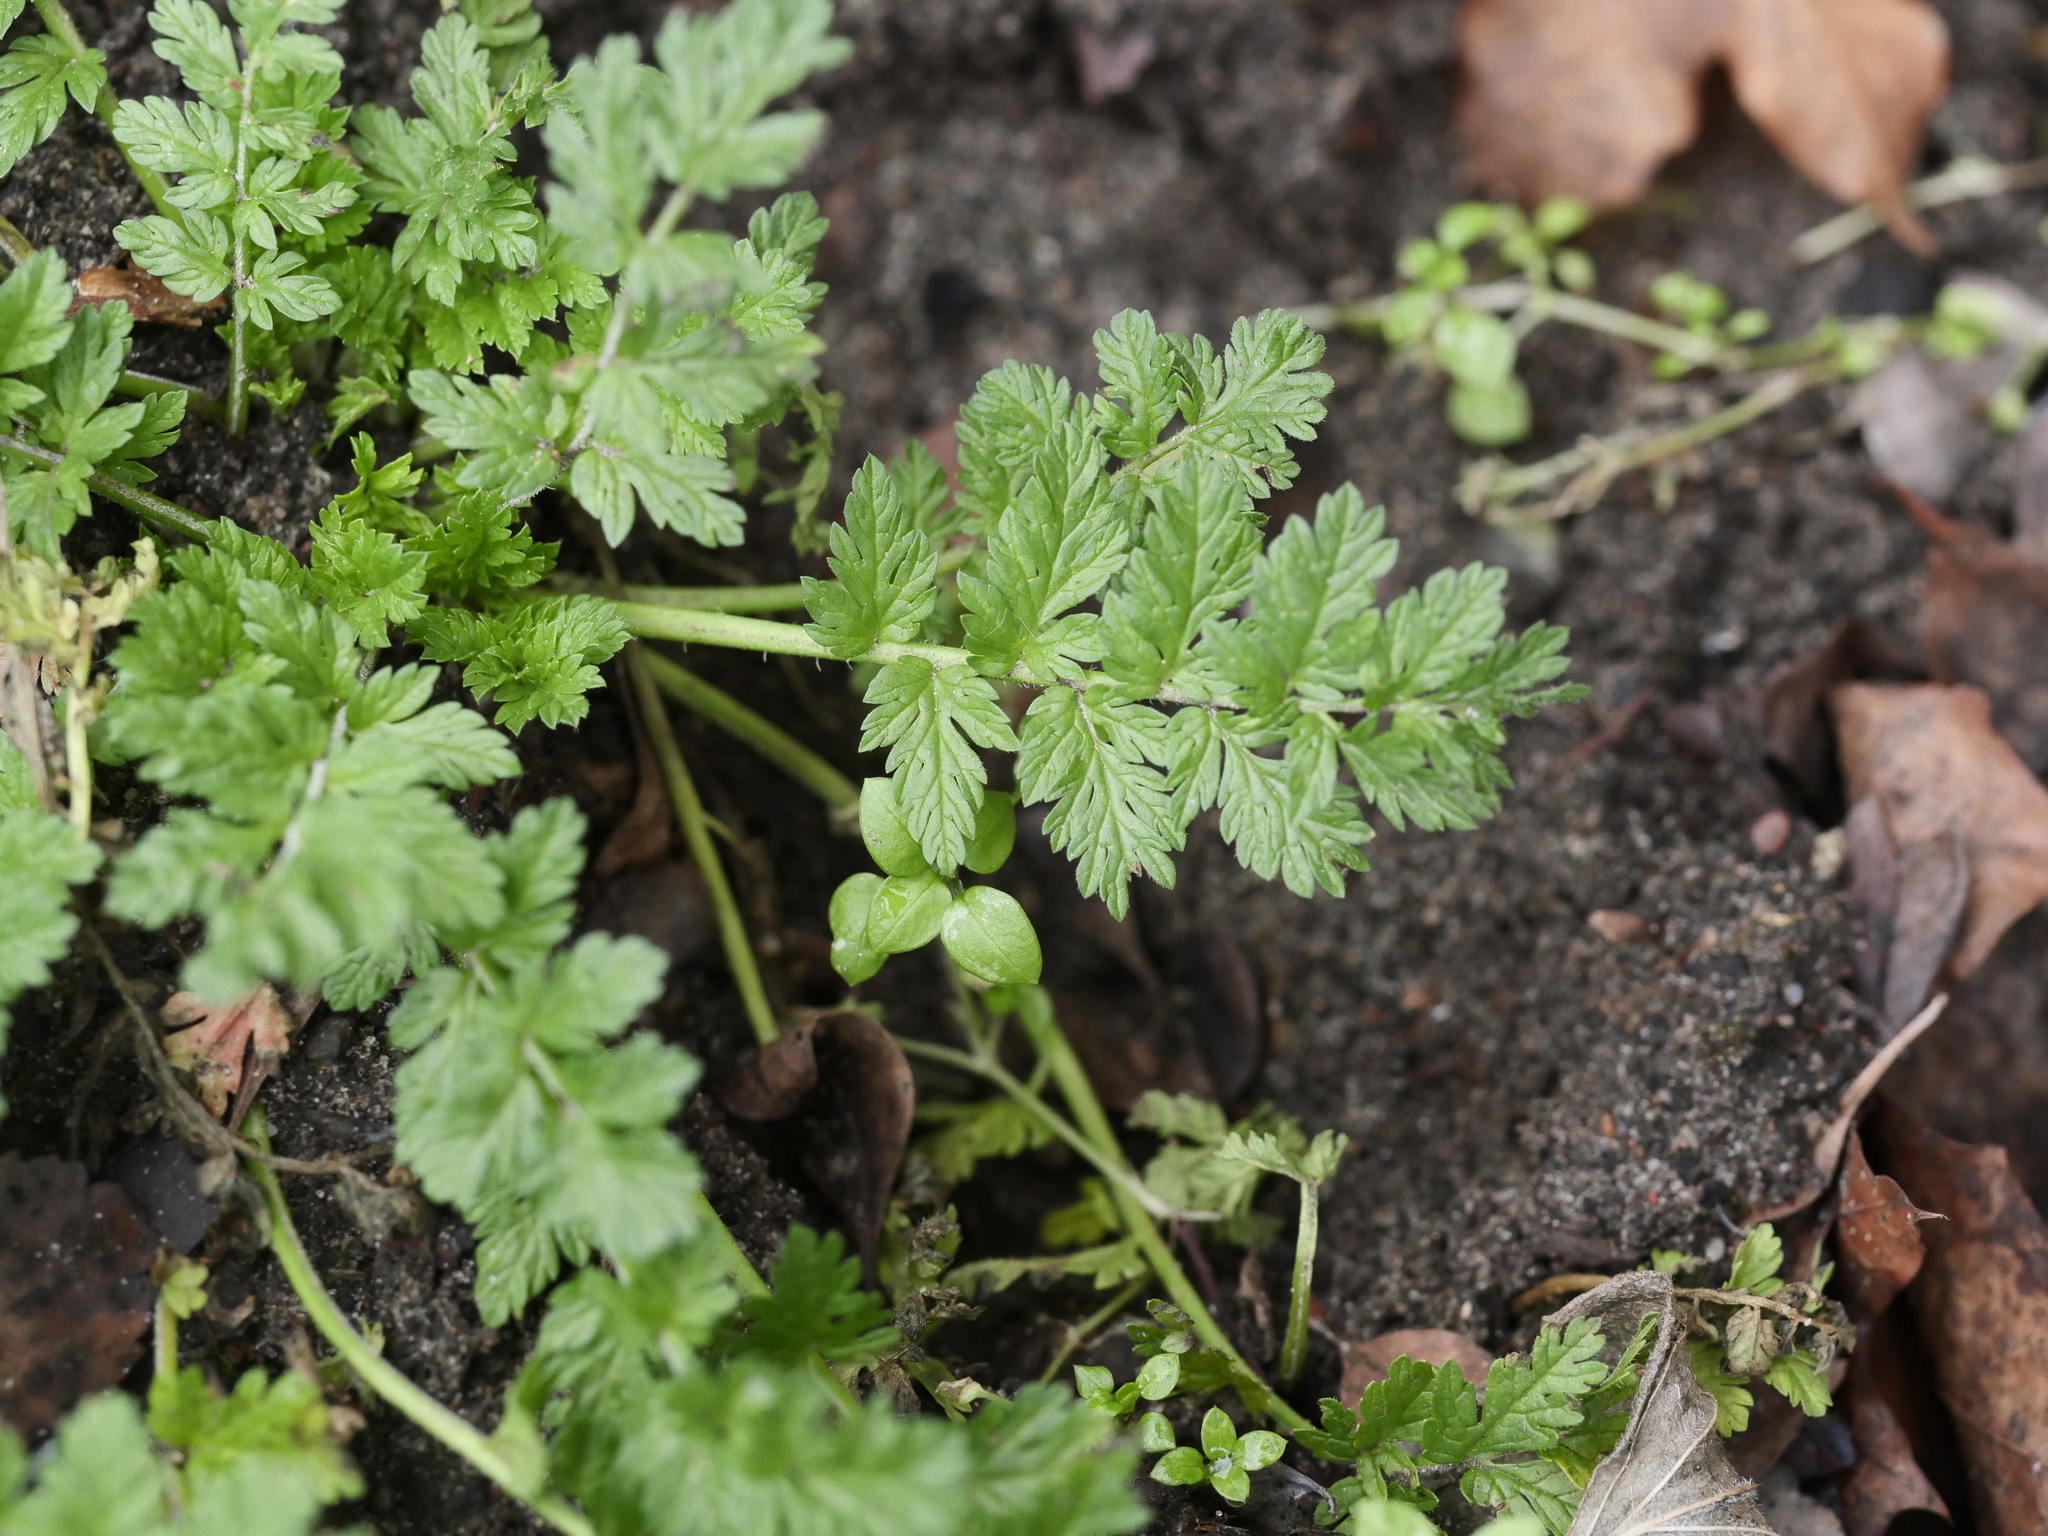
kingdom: Plantae
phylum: Tracheophyta
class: Magnoliopsida
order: Geraniales
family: Geraniaceae
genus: Erodium
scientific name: Erodium cicutarium
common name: Common stork's-bill
